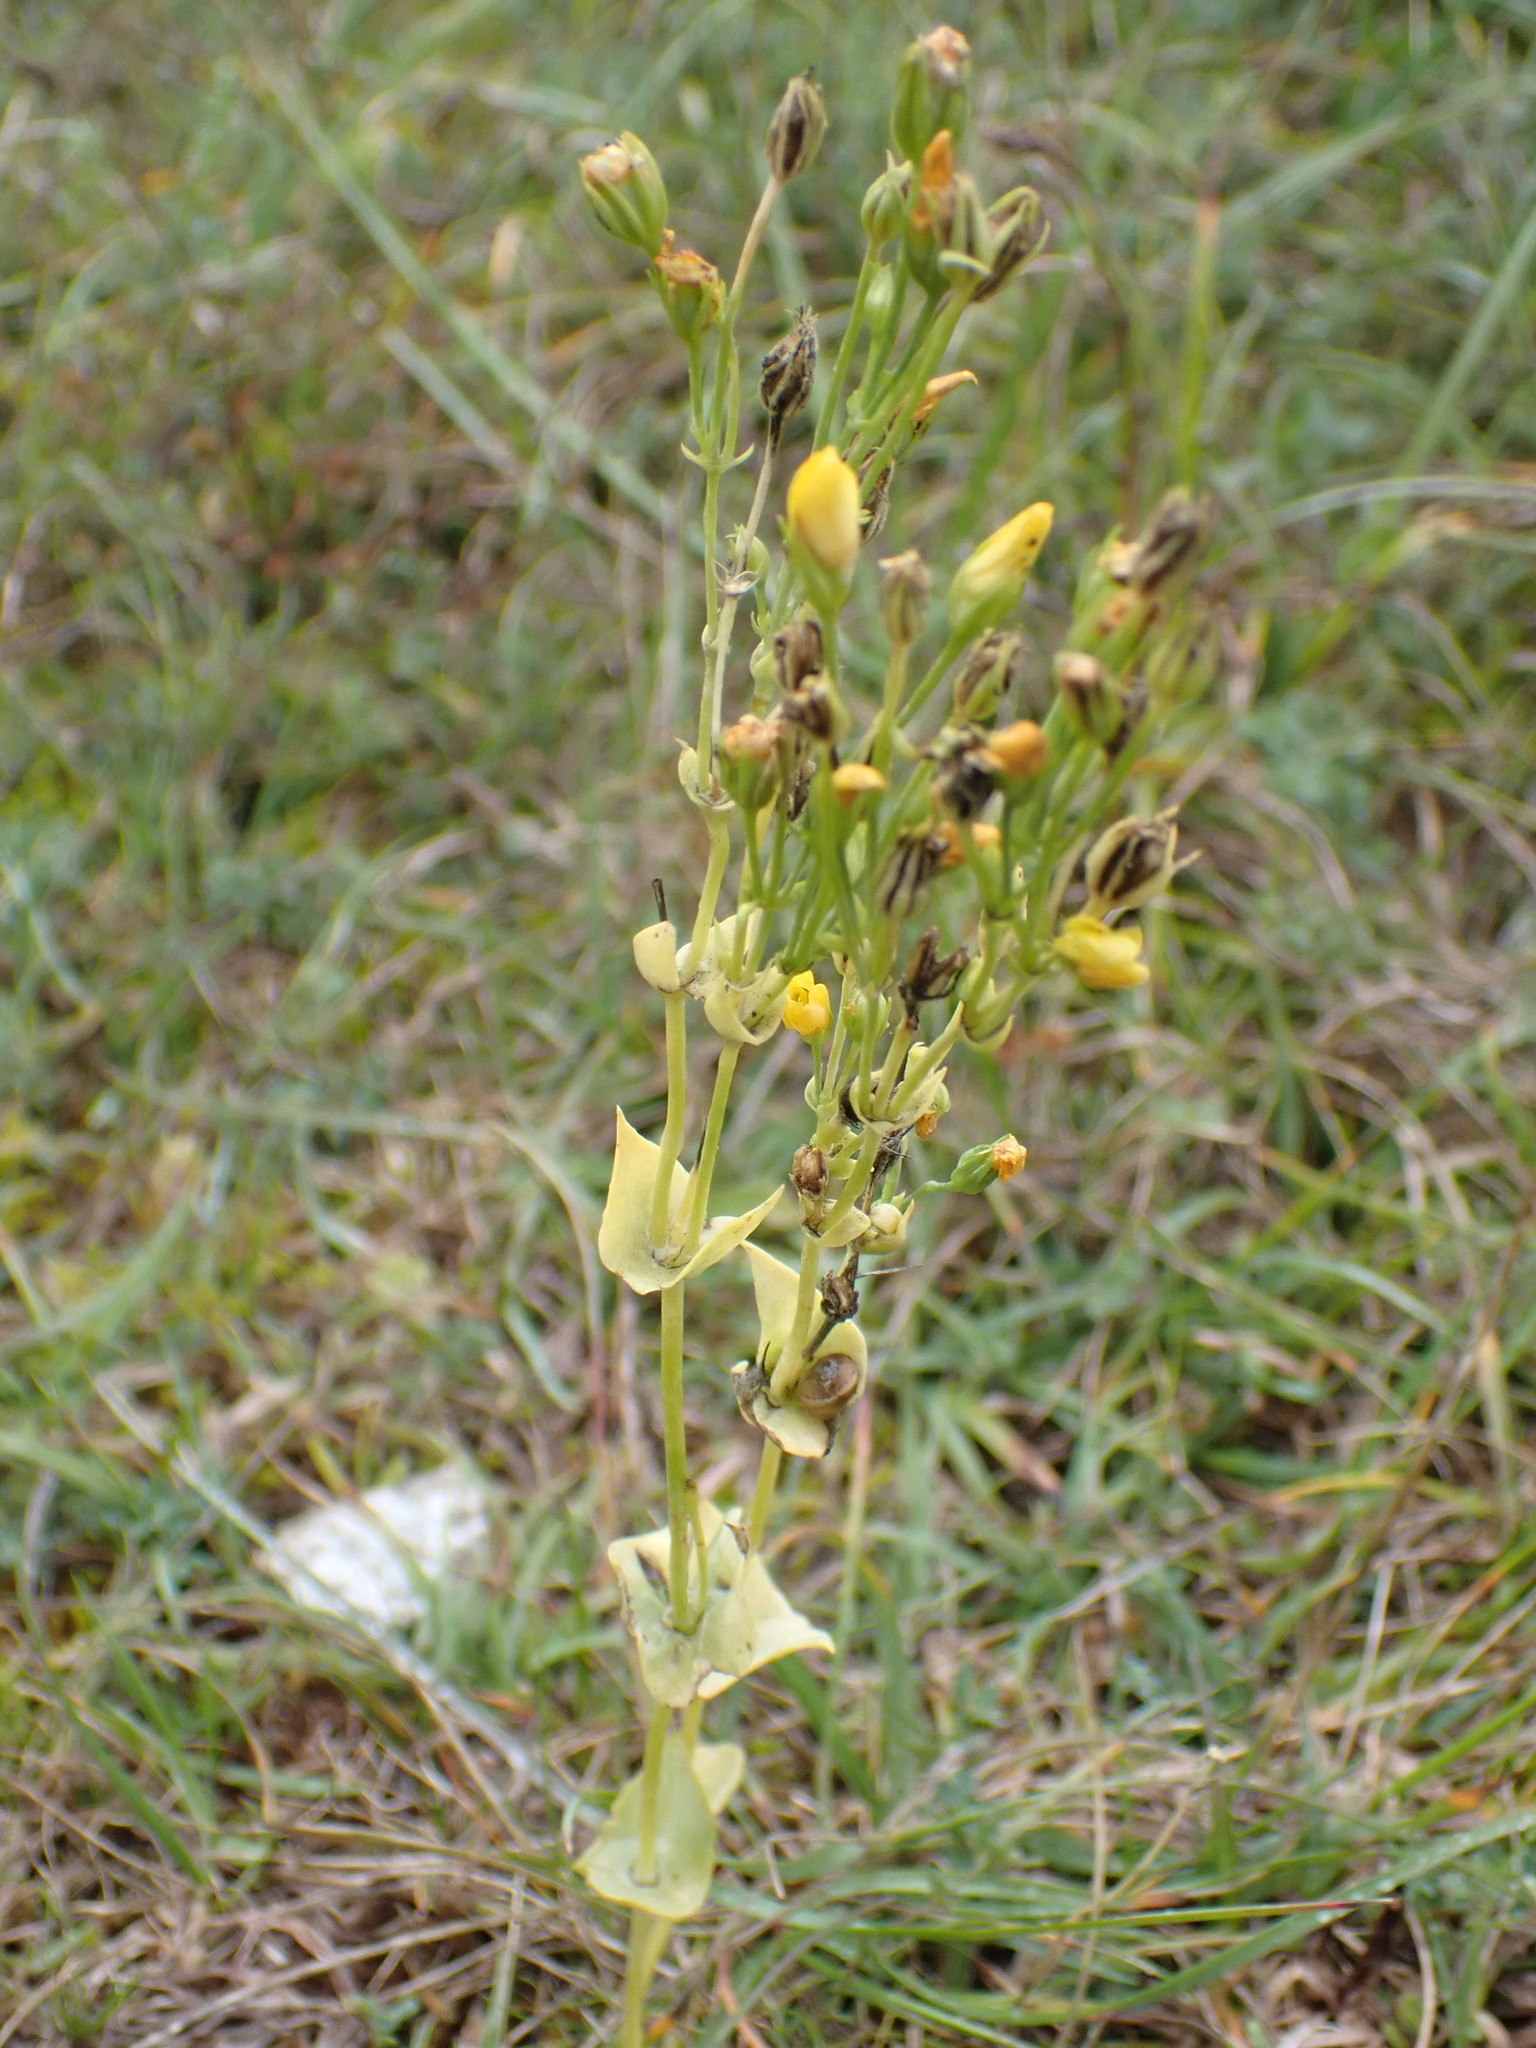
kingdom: Plantae
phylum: Tracheophyta
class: Magnoliopsida
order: Gentianales
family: Gentianaceae
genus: Blackstonia
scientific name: Blackstonia perfoliata
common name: Yellow-wort
